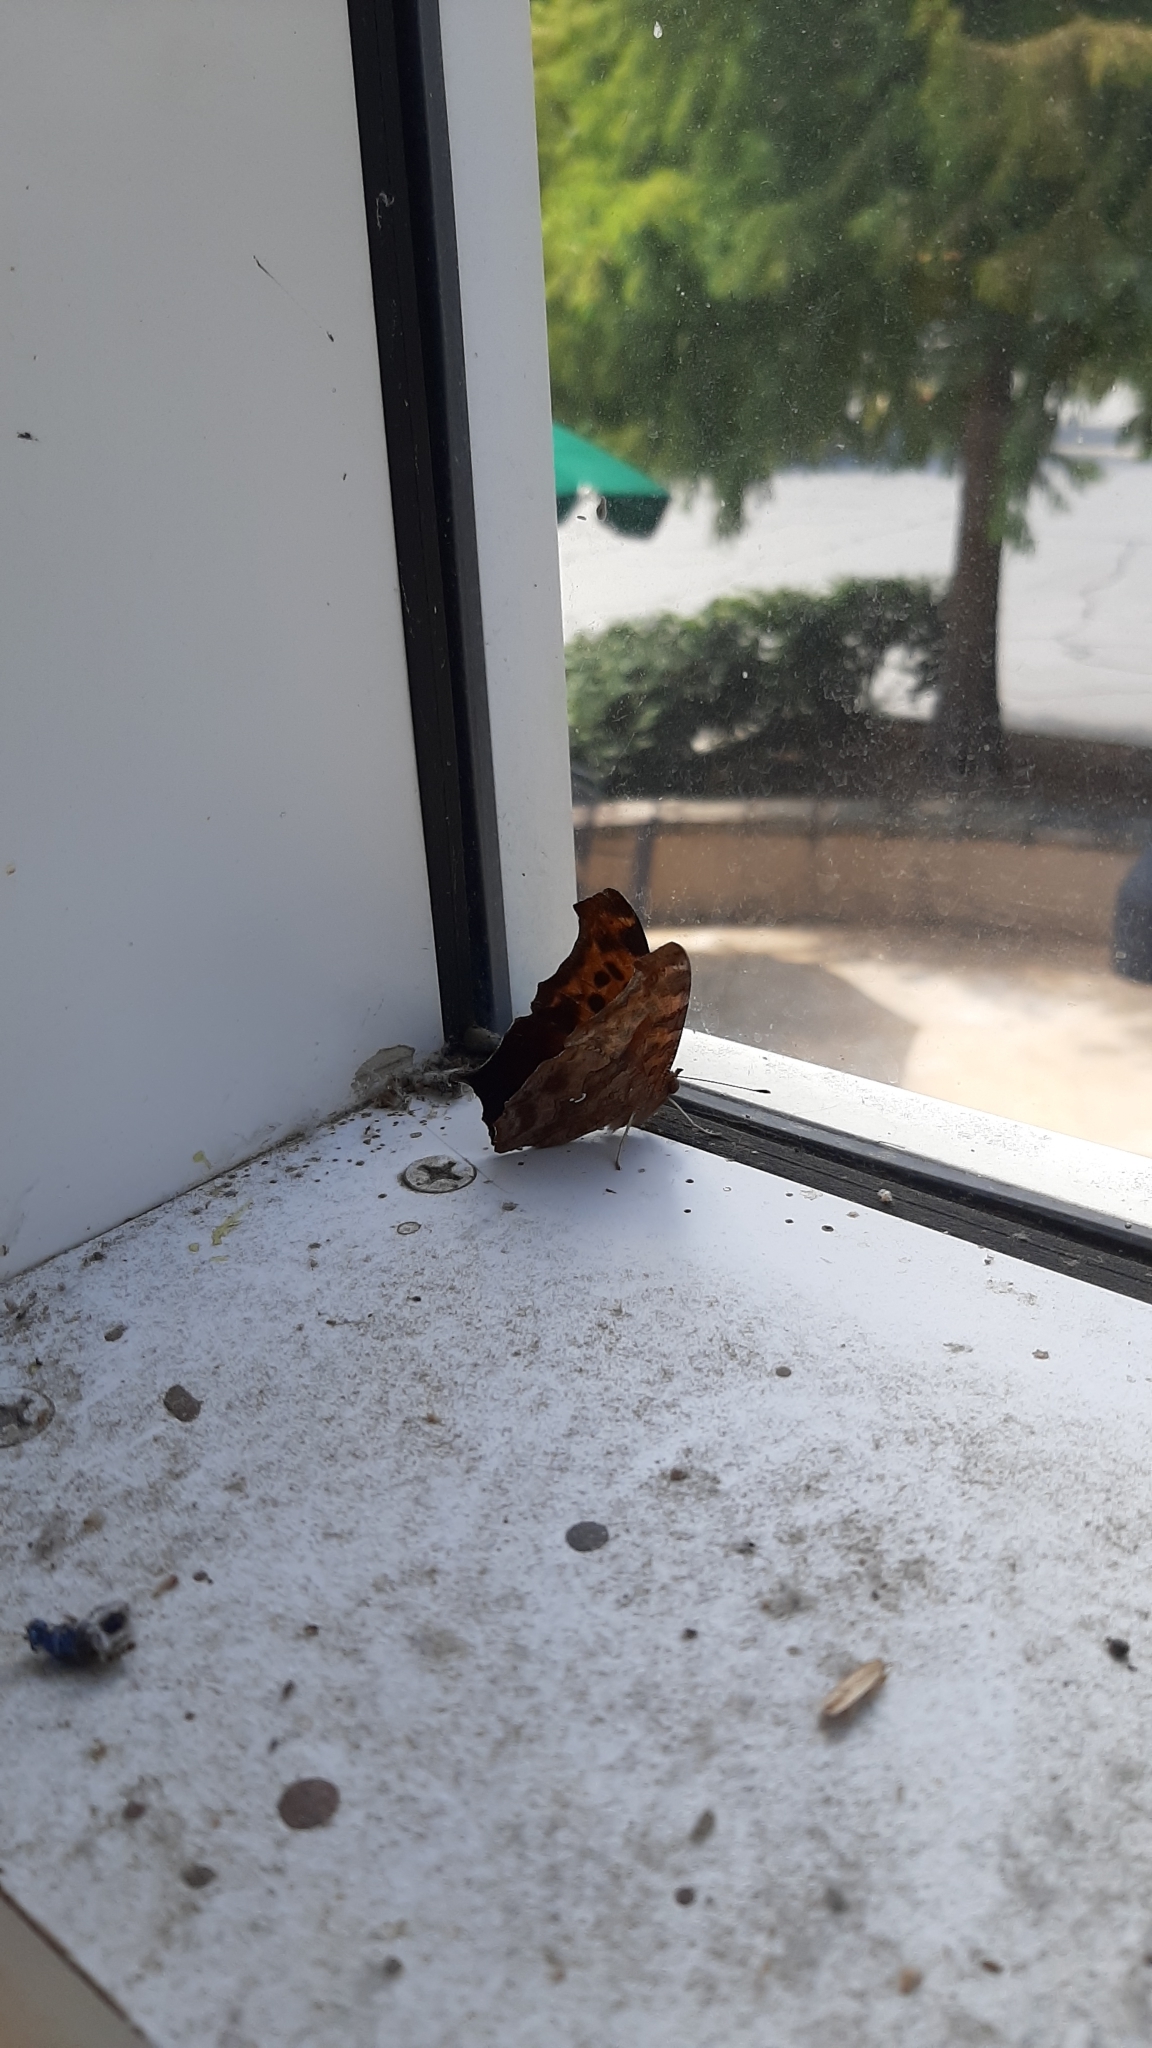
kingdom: Animalia
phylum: Arthropoda
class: Insecta
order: Lepidoptera
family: Nymphalidae
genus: Polygonia
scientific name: Polygonia comma
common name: Eastern comma
